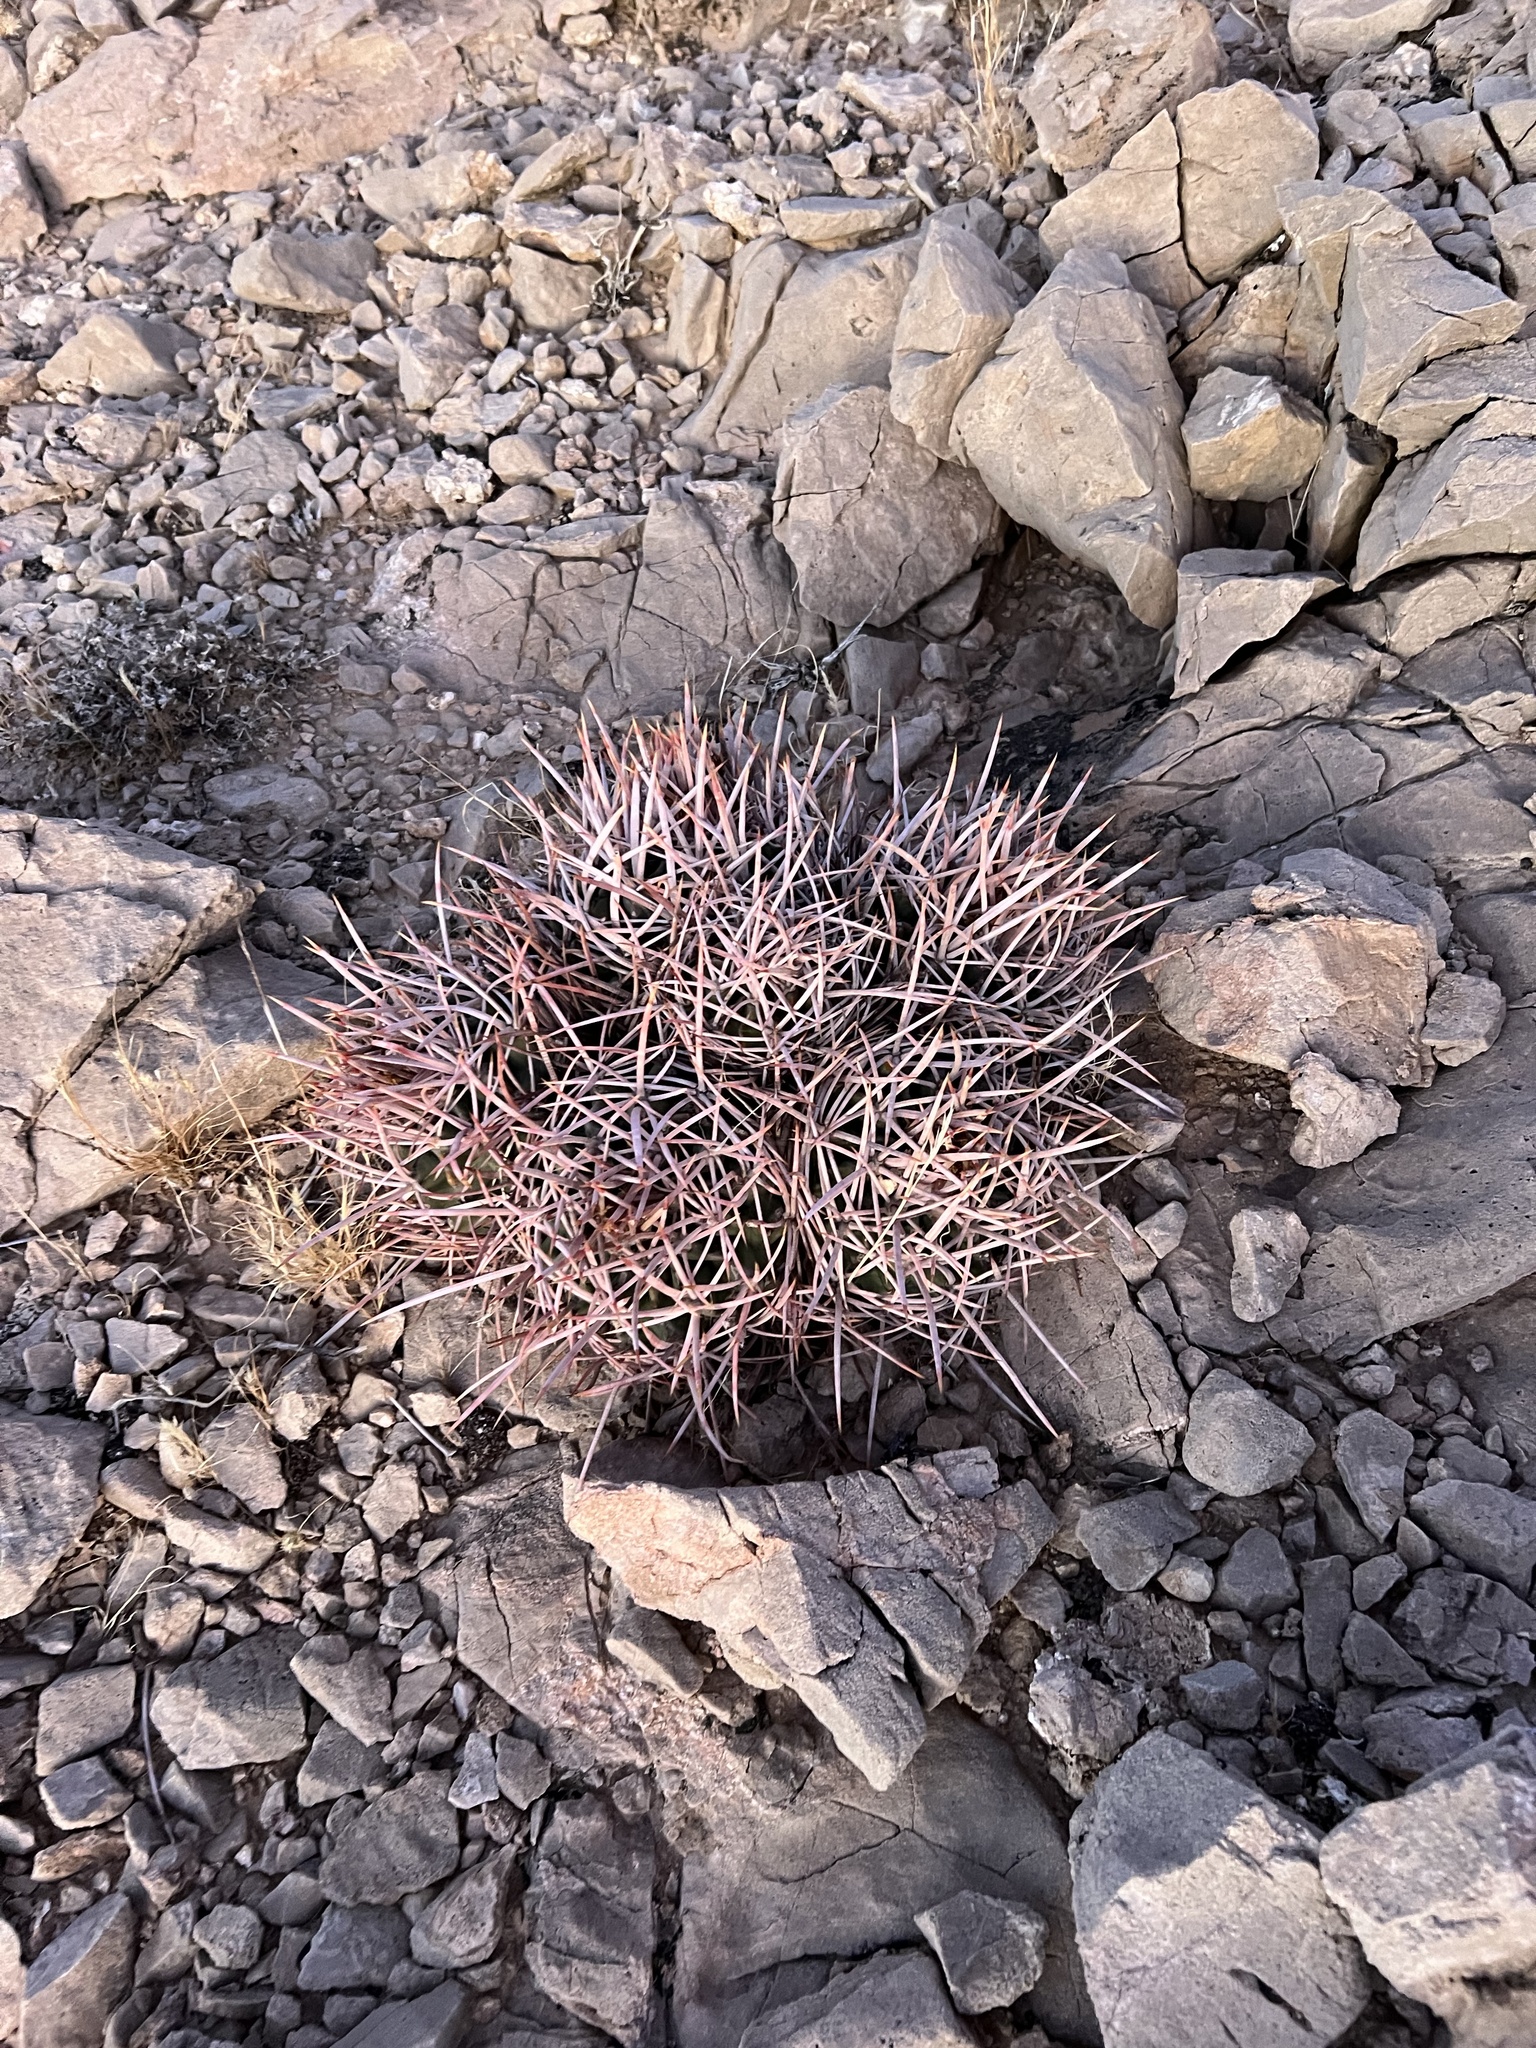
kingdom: Plantae
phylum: Tracheophyta
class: Magnoliopsida
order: Caryophyllales
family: Cactaceae
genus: Echinocactus
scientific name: Echinocactus polycephalus
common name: Cottontop cactus
